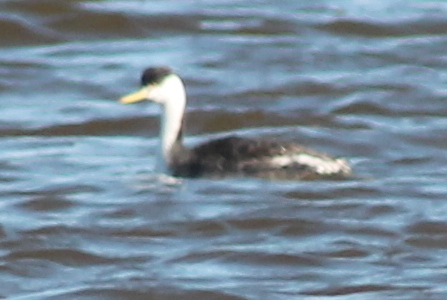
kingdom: Animalia
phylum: Chordata
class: Aves
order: Podicipediformes
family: Podicipedidae
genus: Aechmophorus
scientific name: Aechmophorus occidentalis
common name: Western grebe
